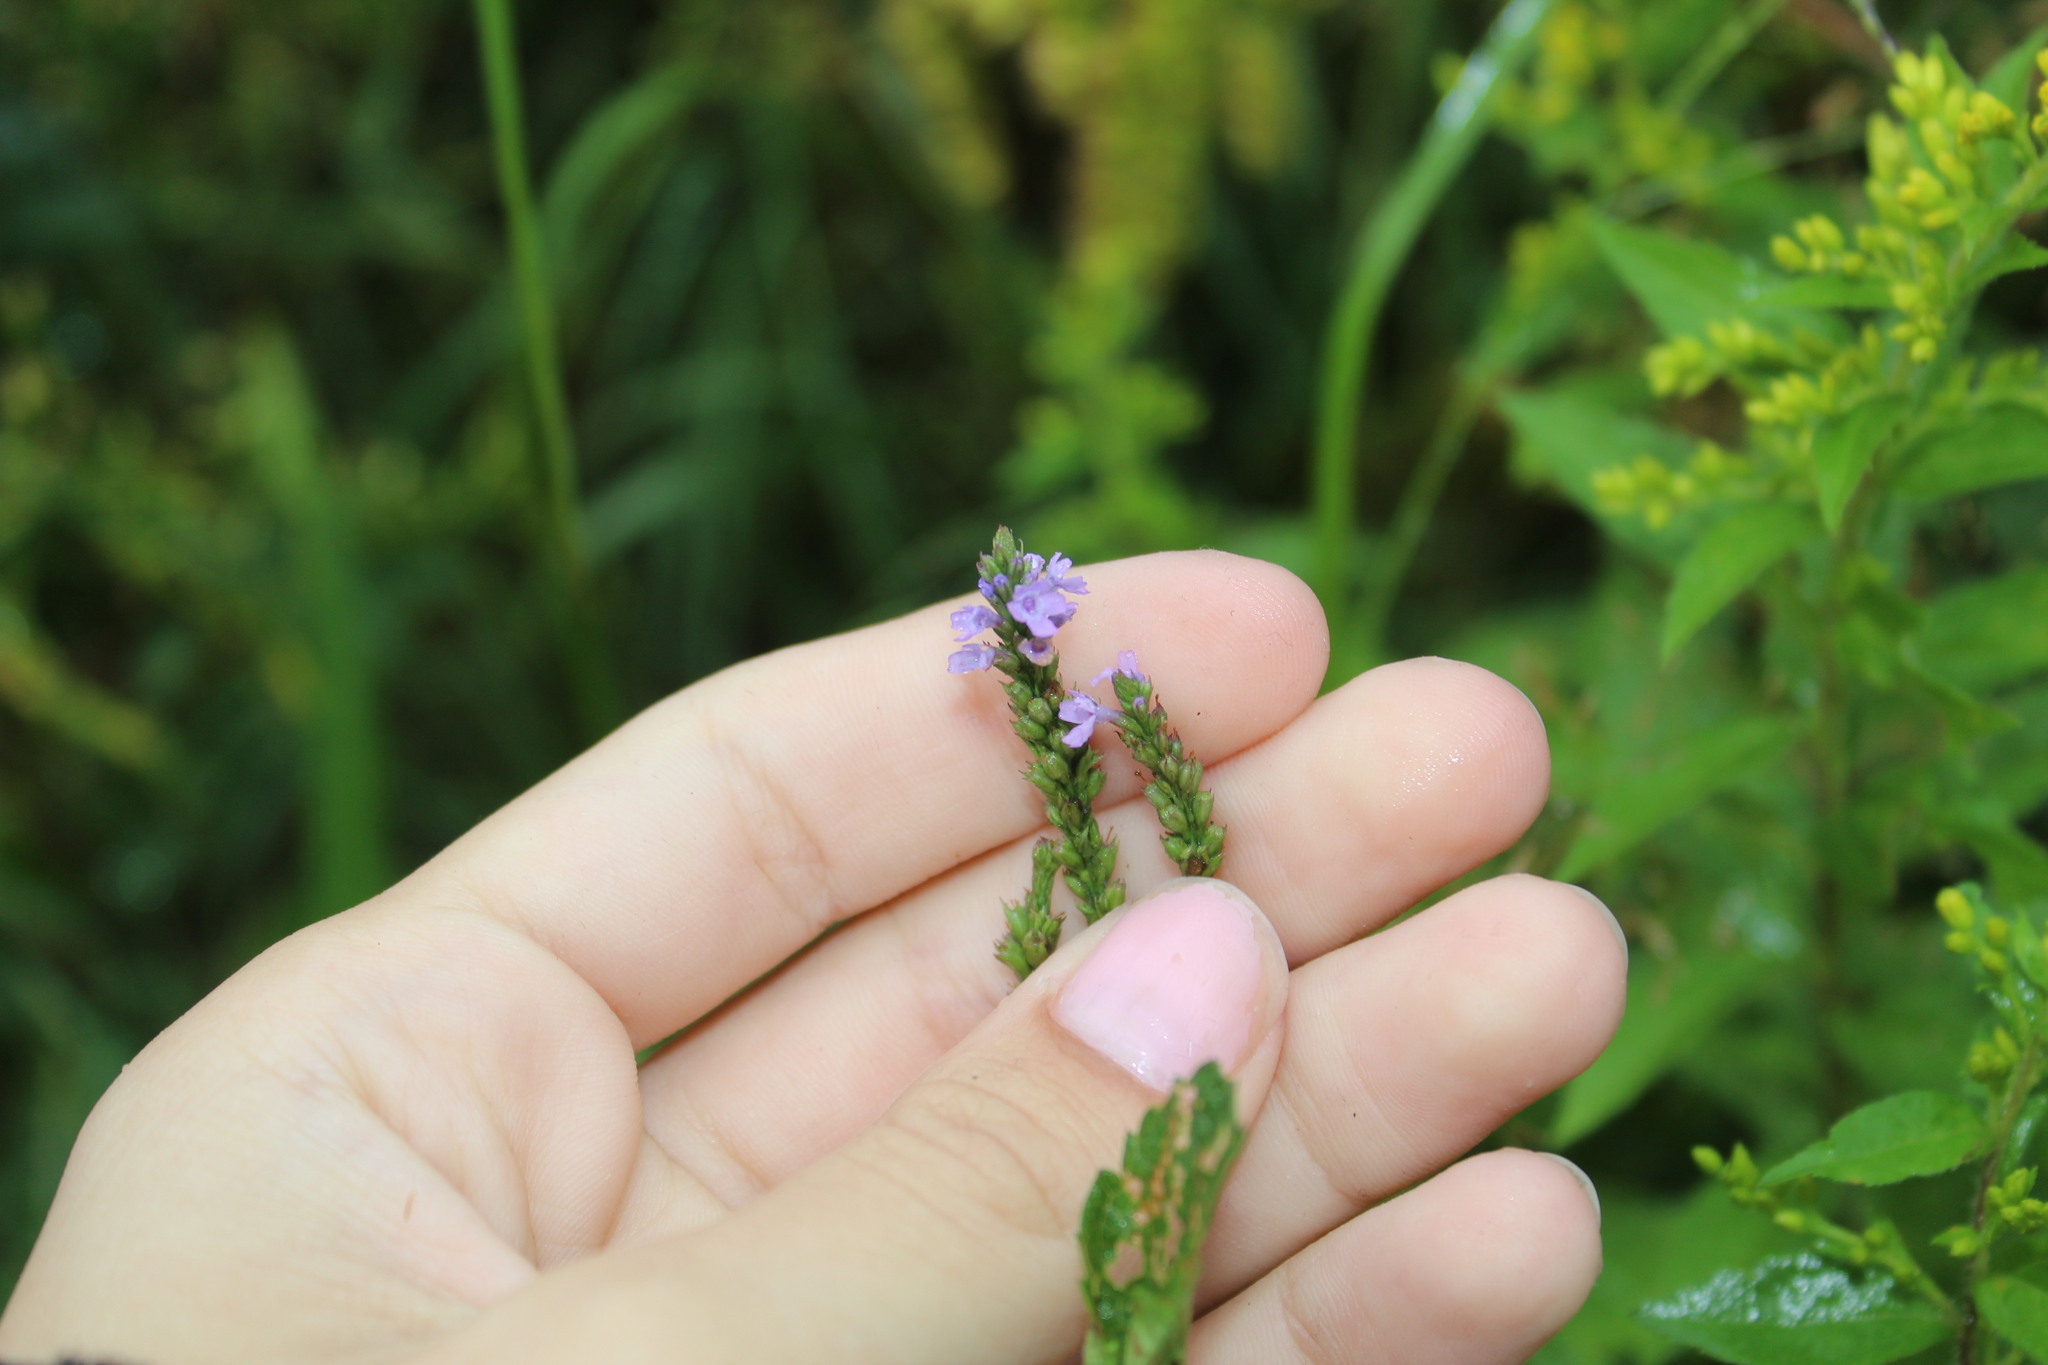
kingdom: Plantae
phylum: Tracheophyta
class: Magnoliopsida
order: Lamiales
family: Verbenaceae
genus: Verbena
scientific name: Verbena hastata
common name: American blue vervain
